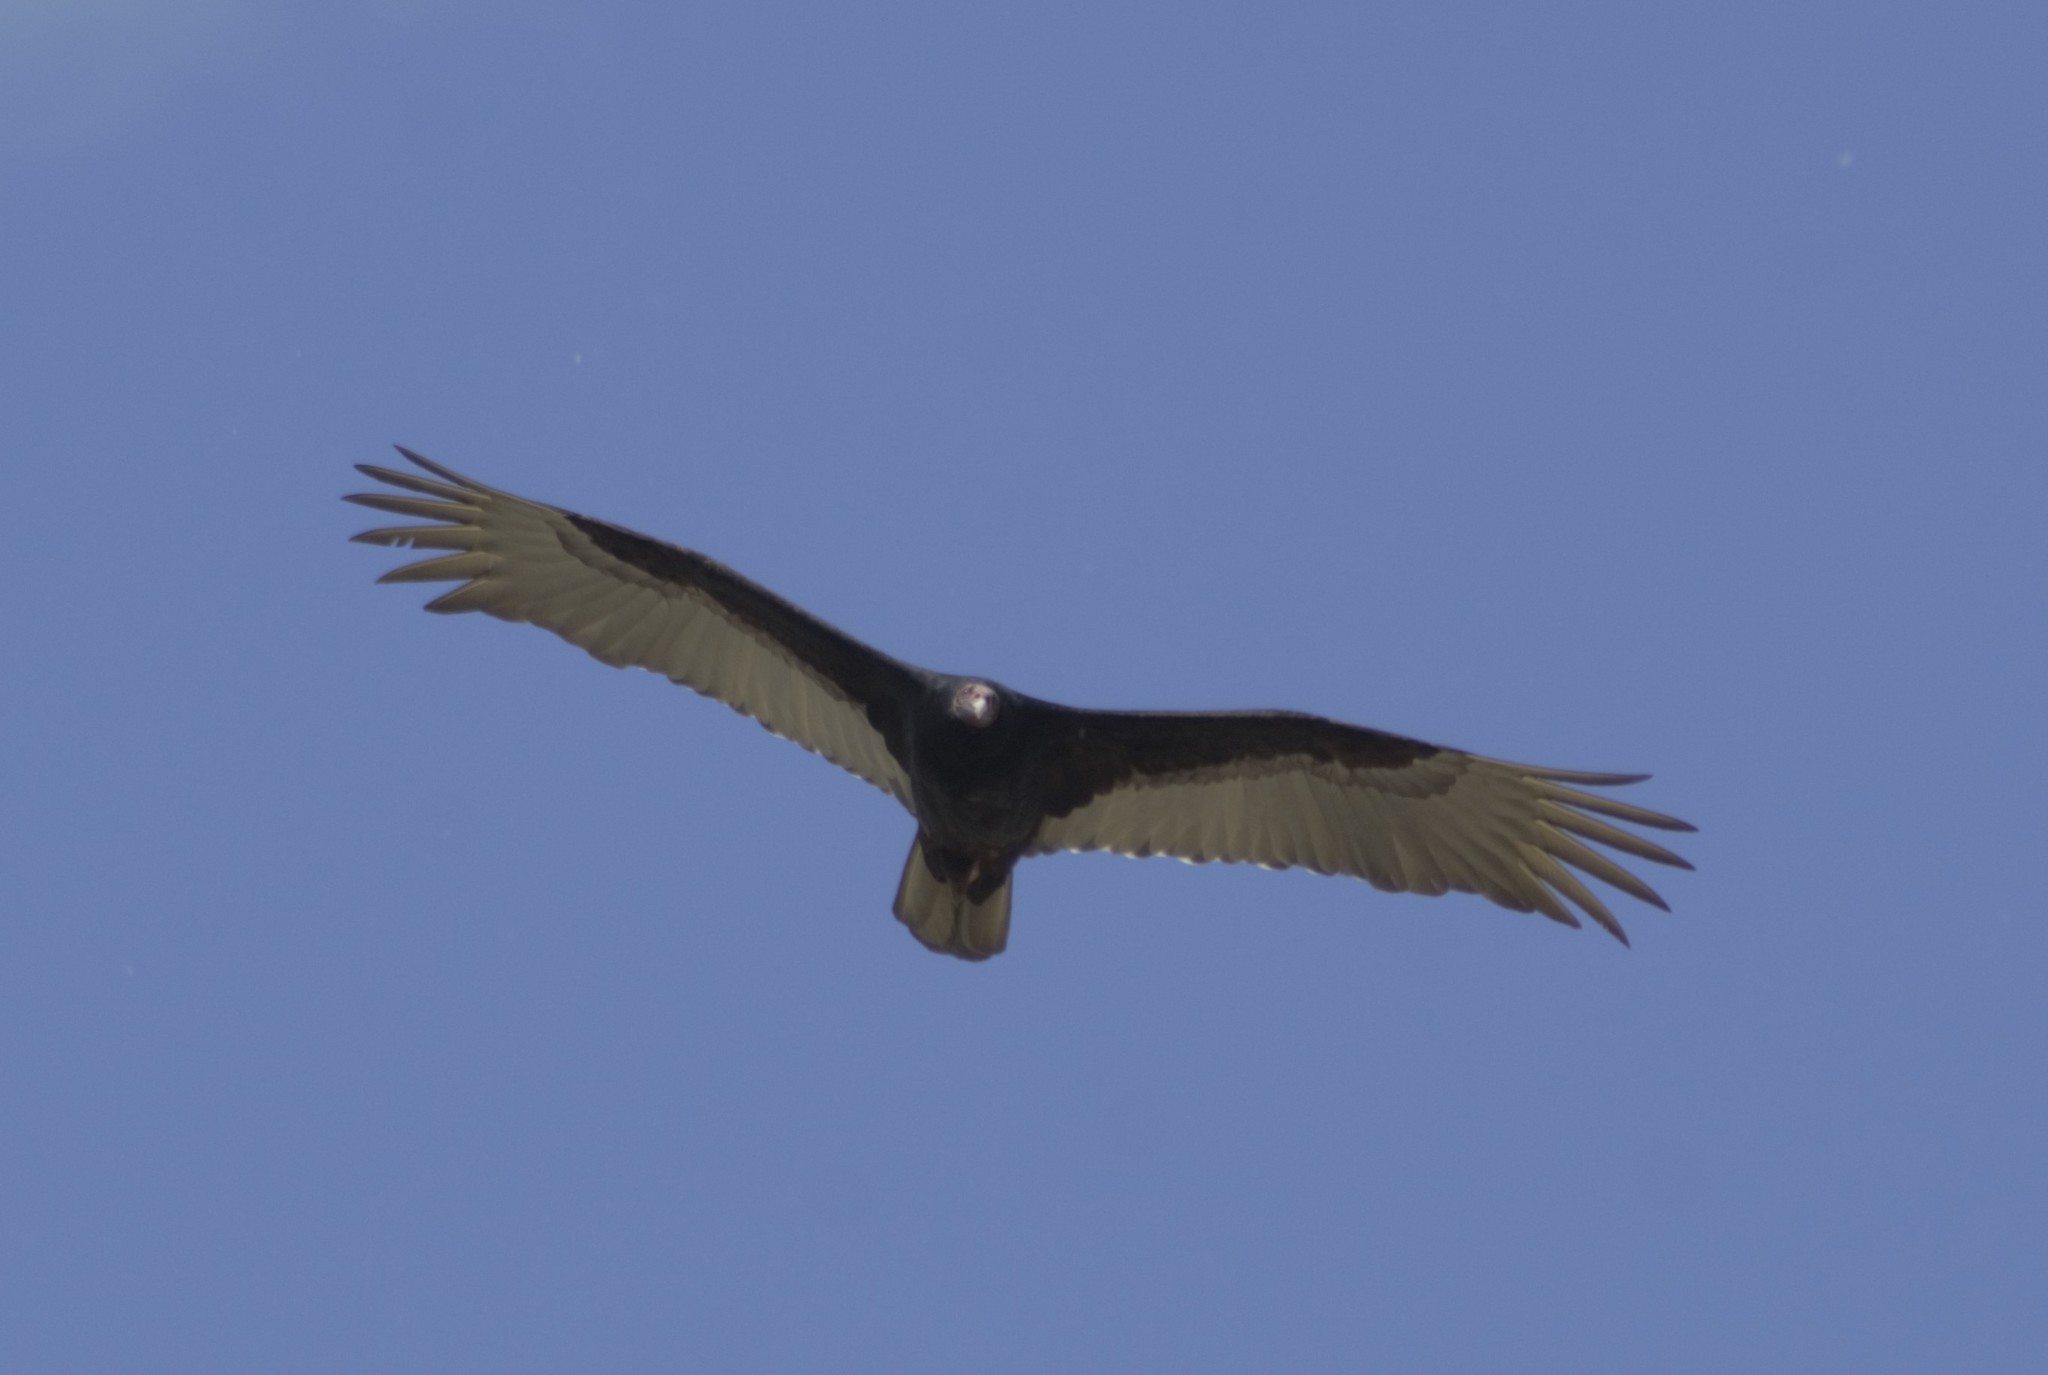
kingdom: Animalia
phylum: Chordata
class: Aves
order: Accipitriformes
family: Cathartidae
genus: Cathartes
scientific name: Cathartes aura
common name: Turkey vulture
